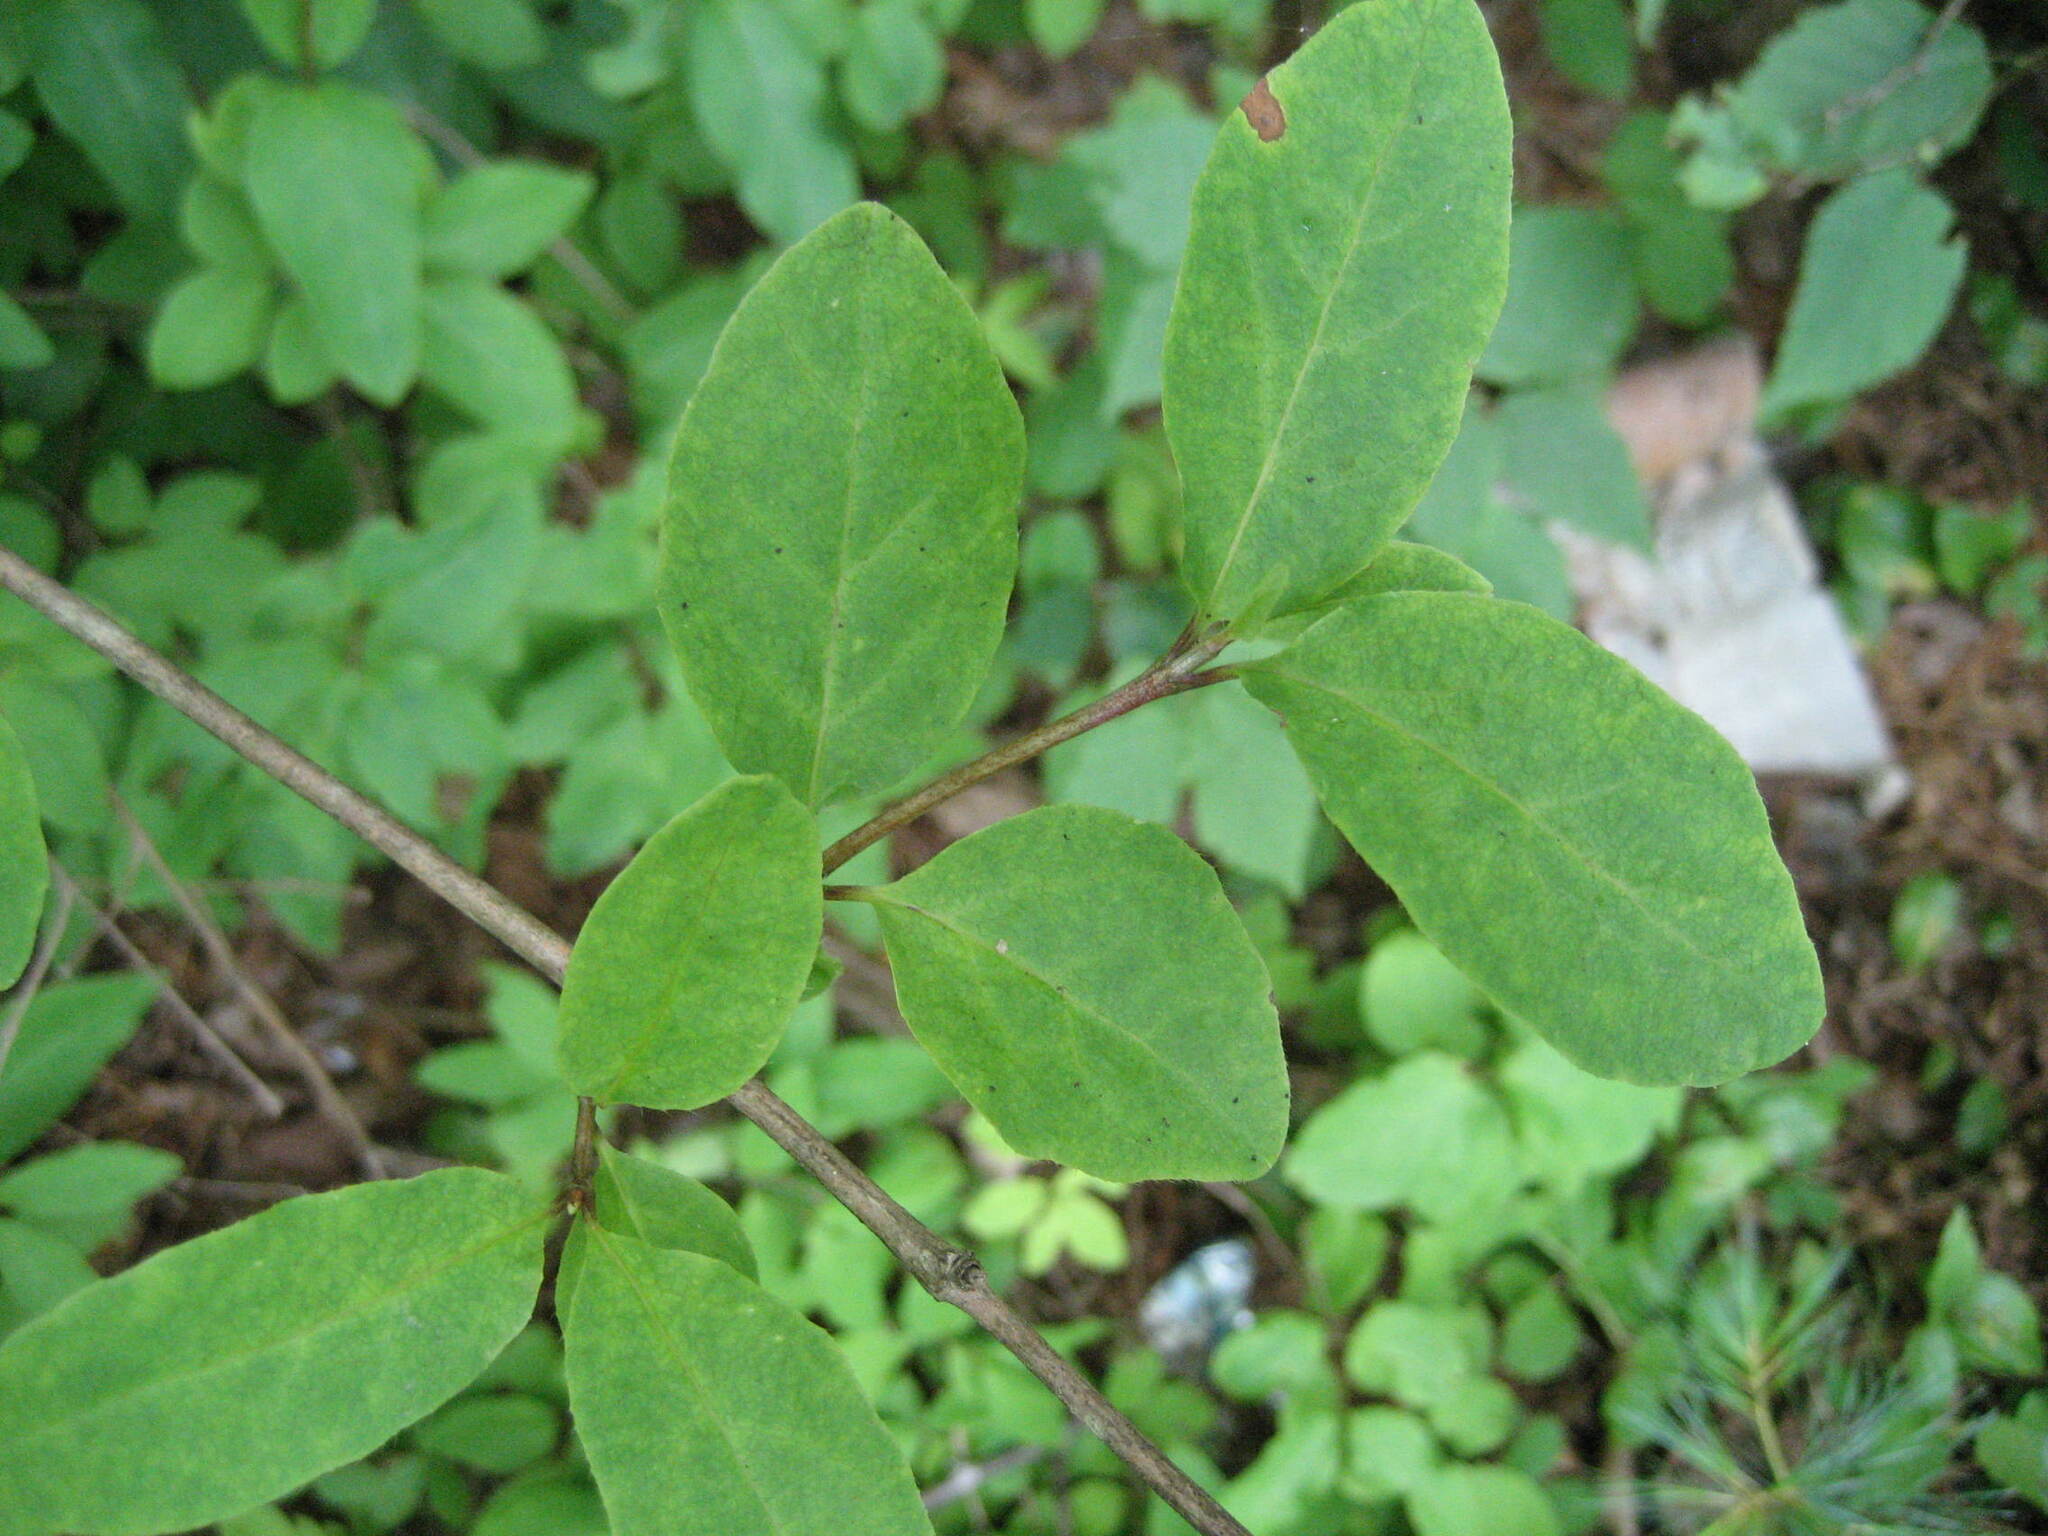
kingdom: Plantae
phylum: Tracheophyta
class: Magnoliopsida
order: Dipsacales
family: Caprifoliaceae
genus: Lonicera
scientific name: Lonicera canadensis
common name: American fly-honeysuckle
